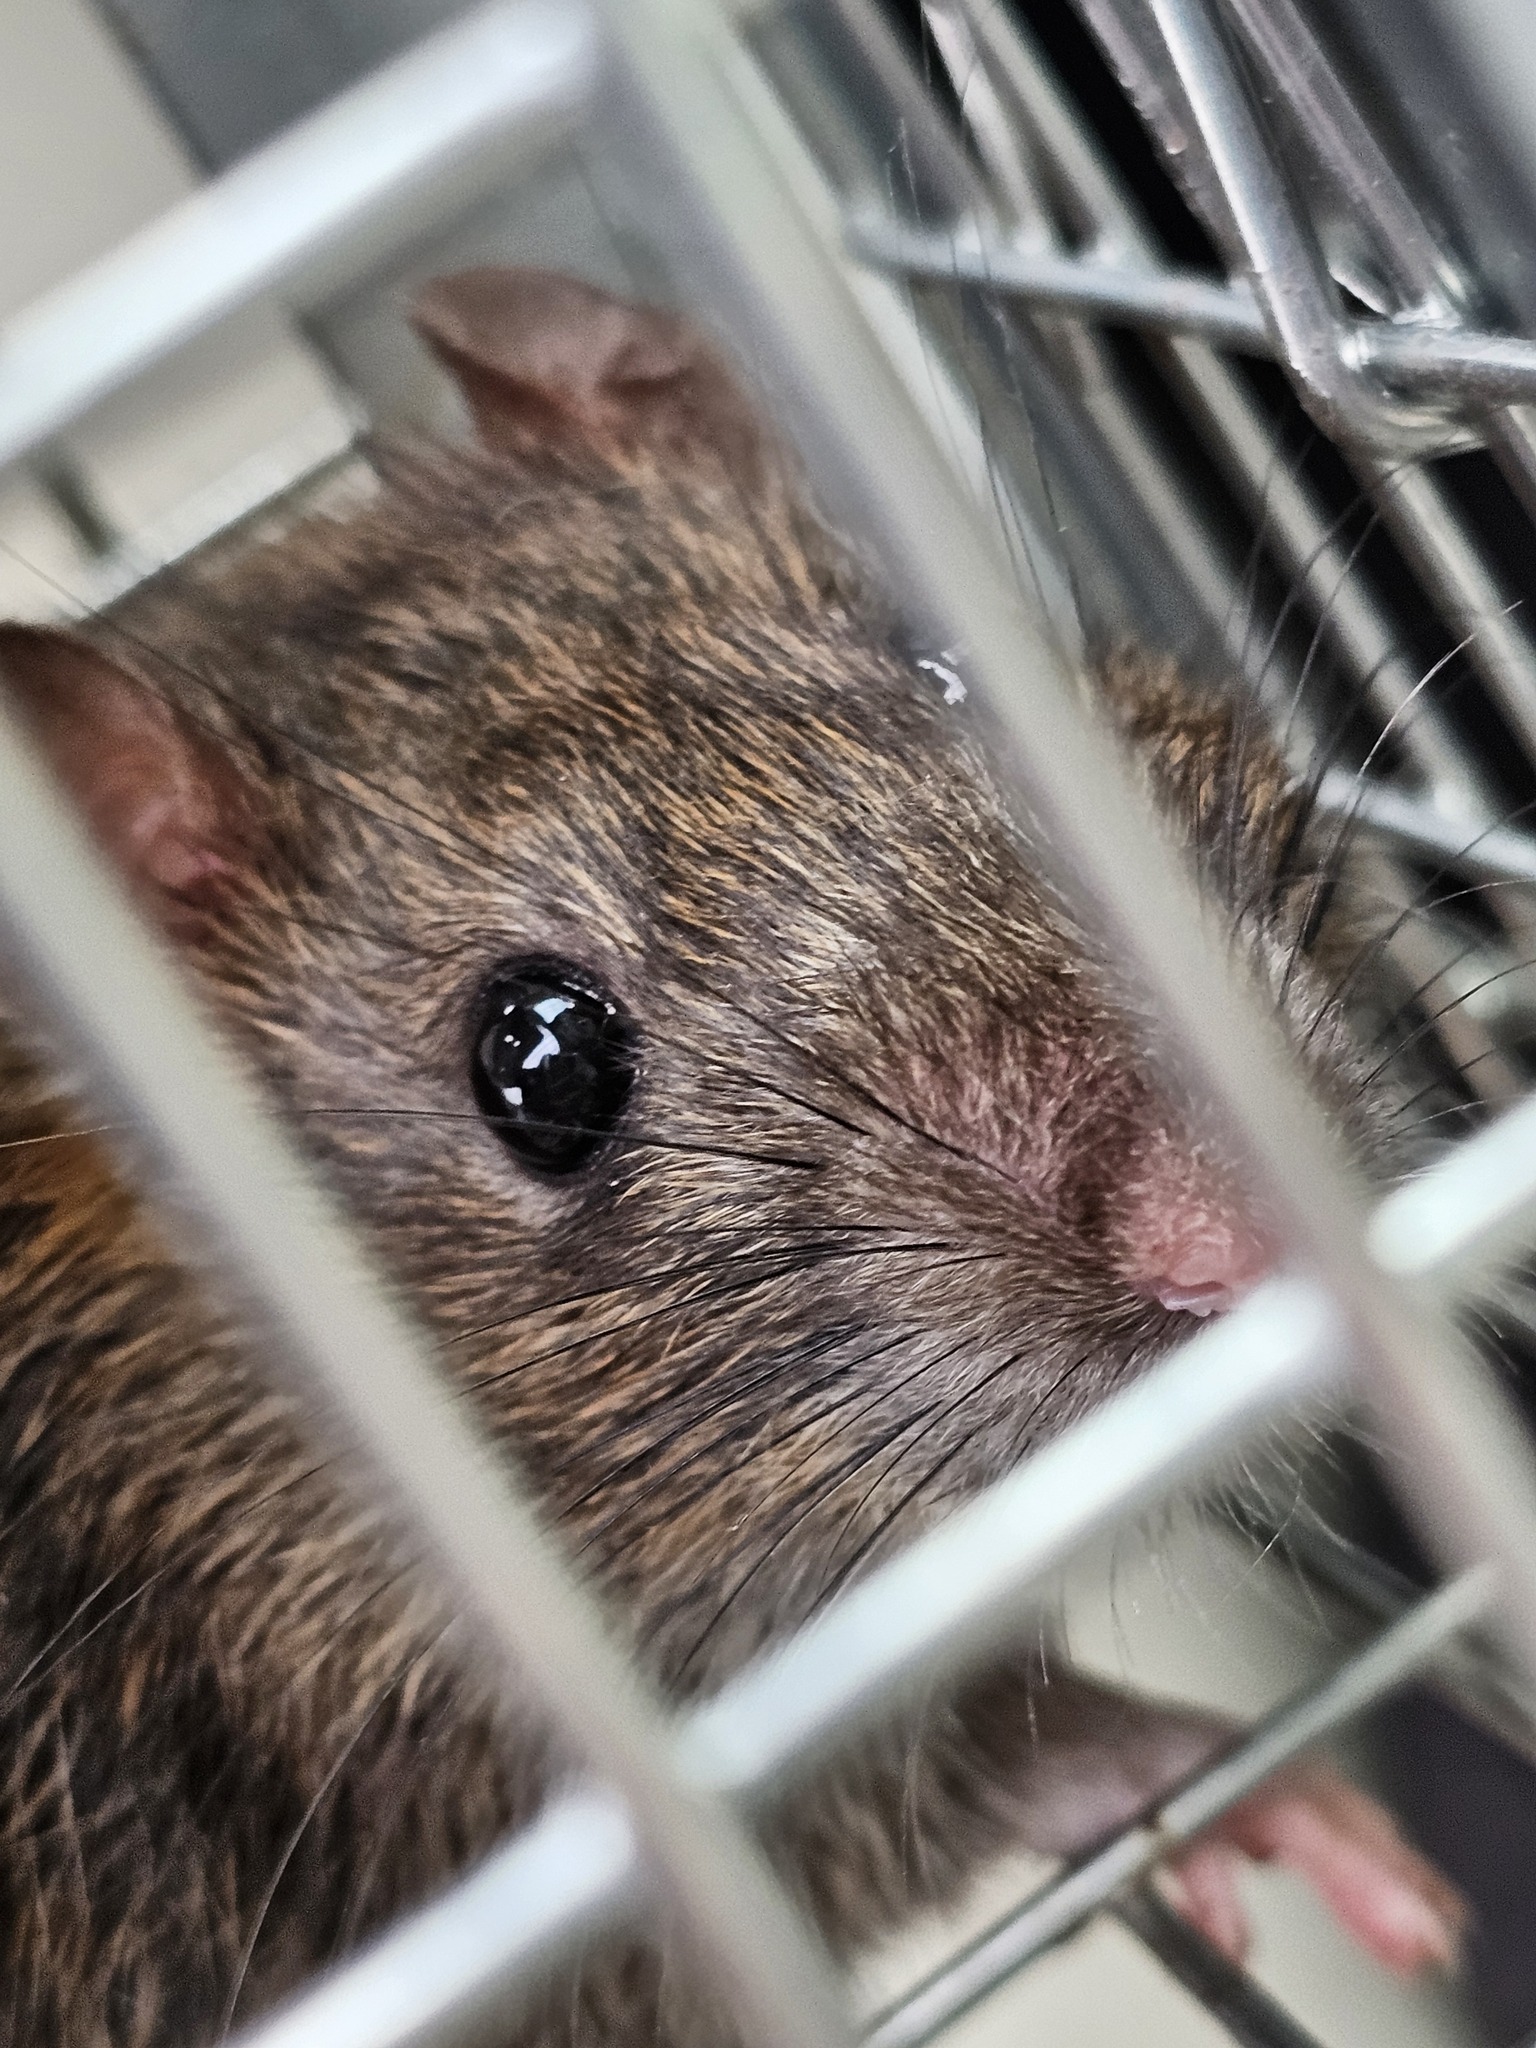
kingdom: Animalia
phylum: Chordata
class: Mammalia
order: Rodentia
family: Muridae
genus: Rattus
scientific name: Rattus norvegicus
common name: Brown rat
